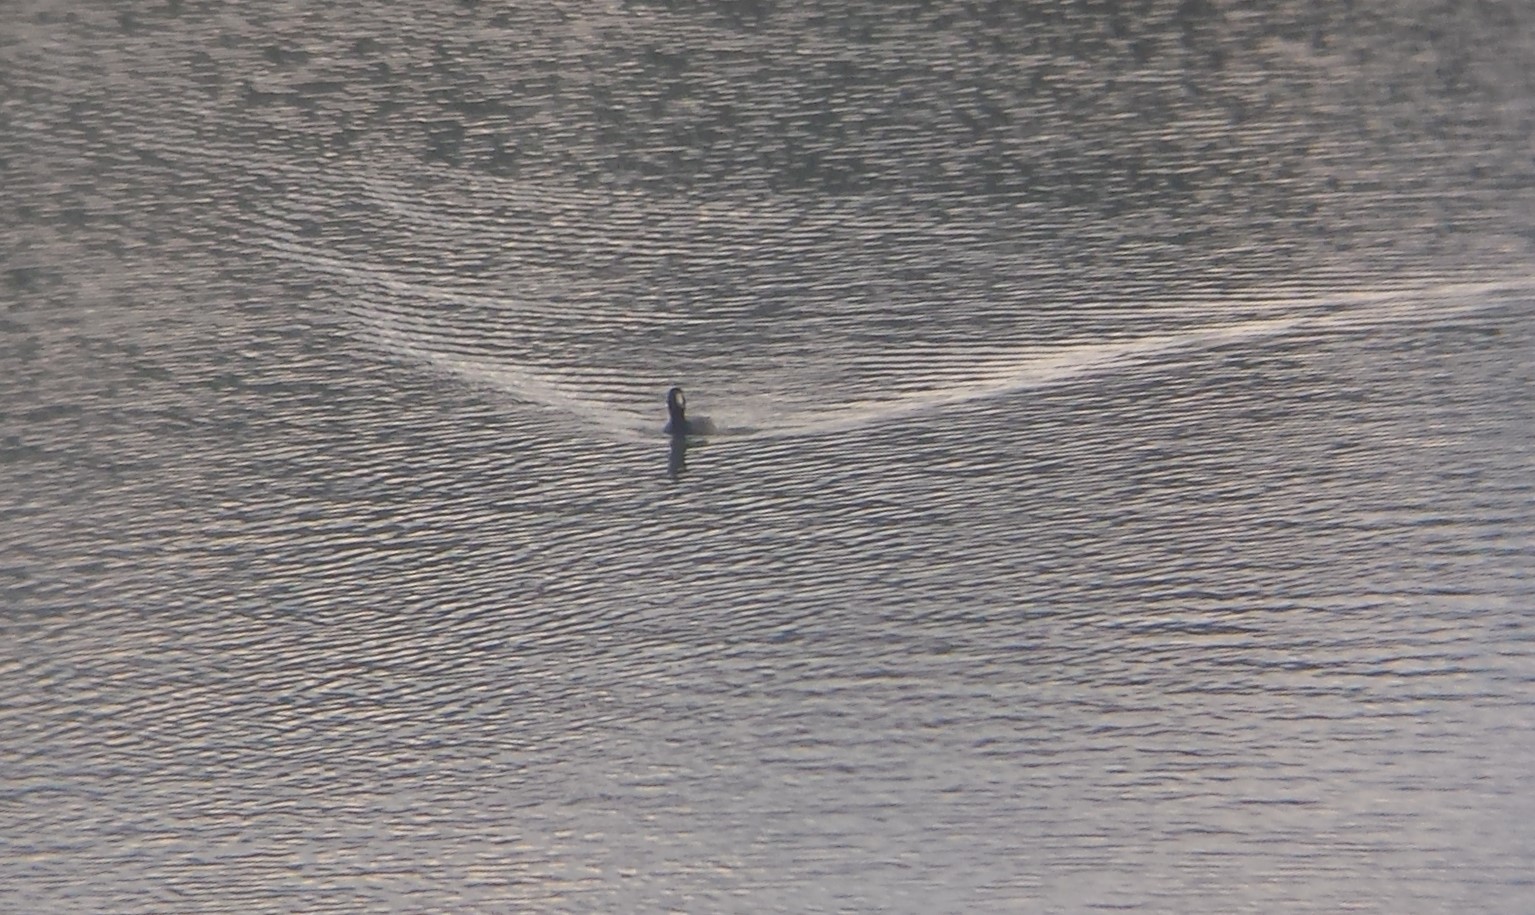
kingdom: Animalia
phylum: Chordata
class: Aves
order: Gruiformes
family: Rallidae
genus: Fulica
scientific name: Fulica americana
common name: American coot
